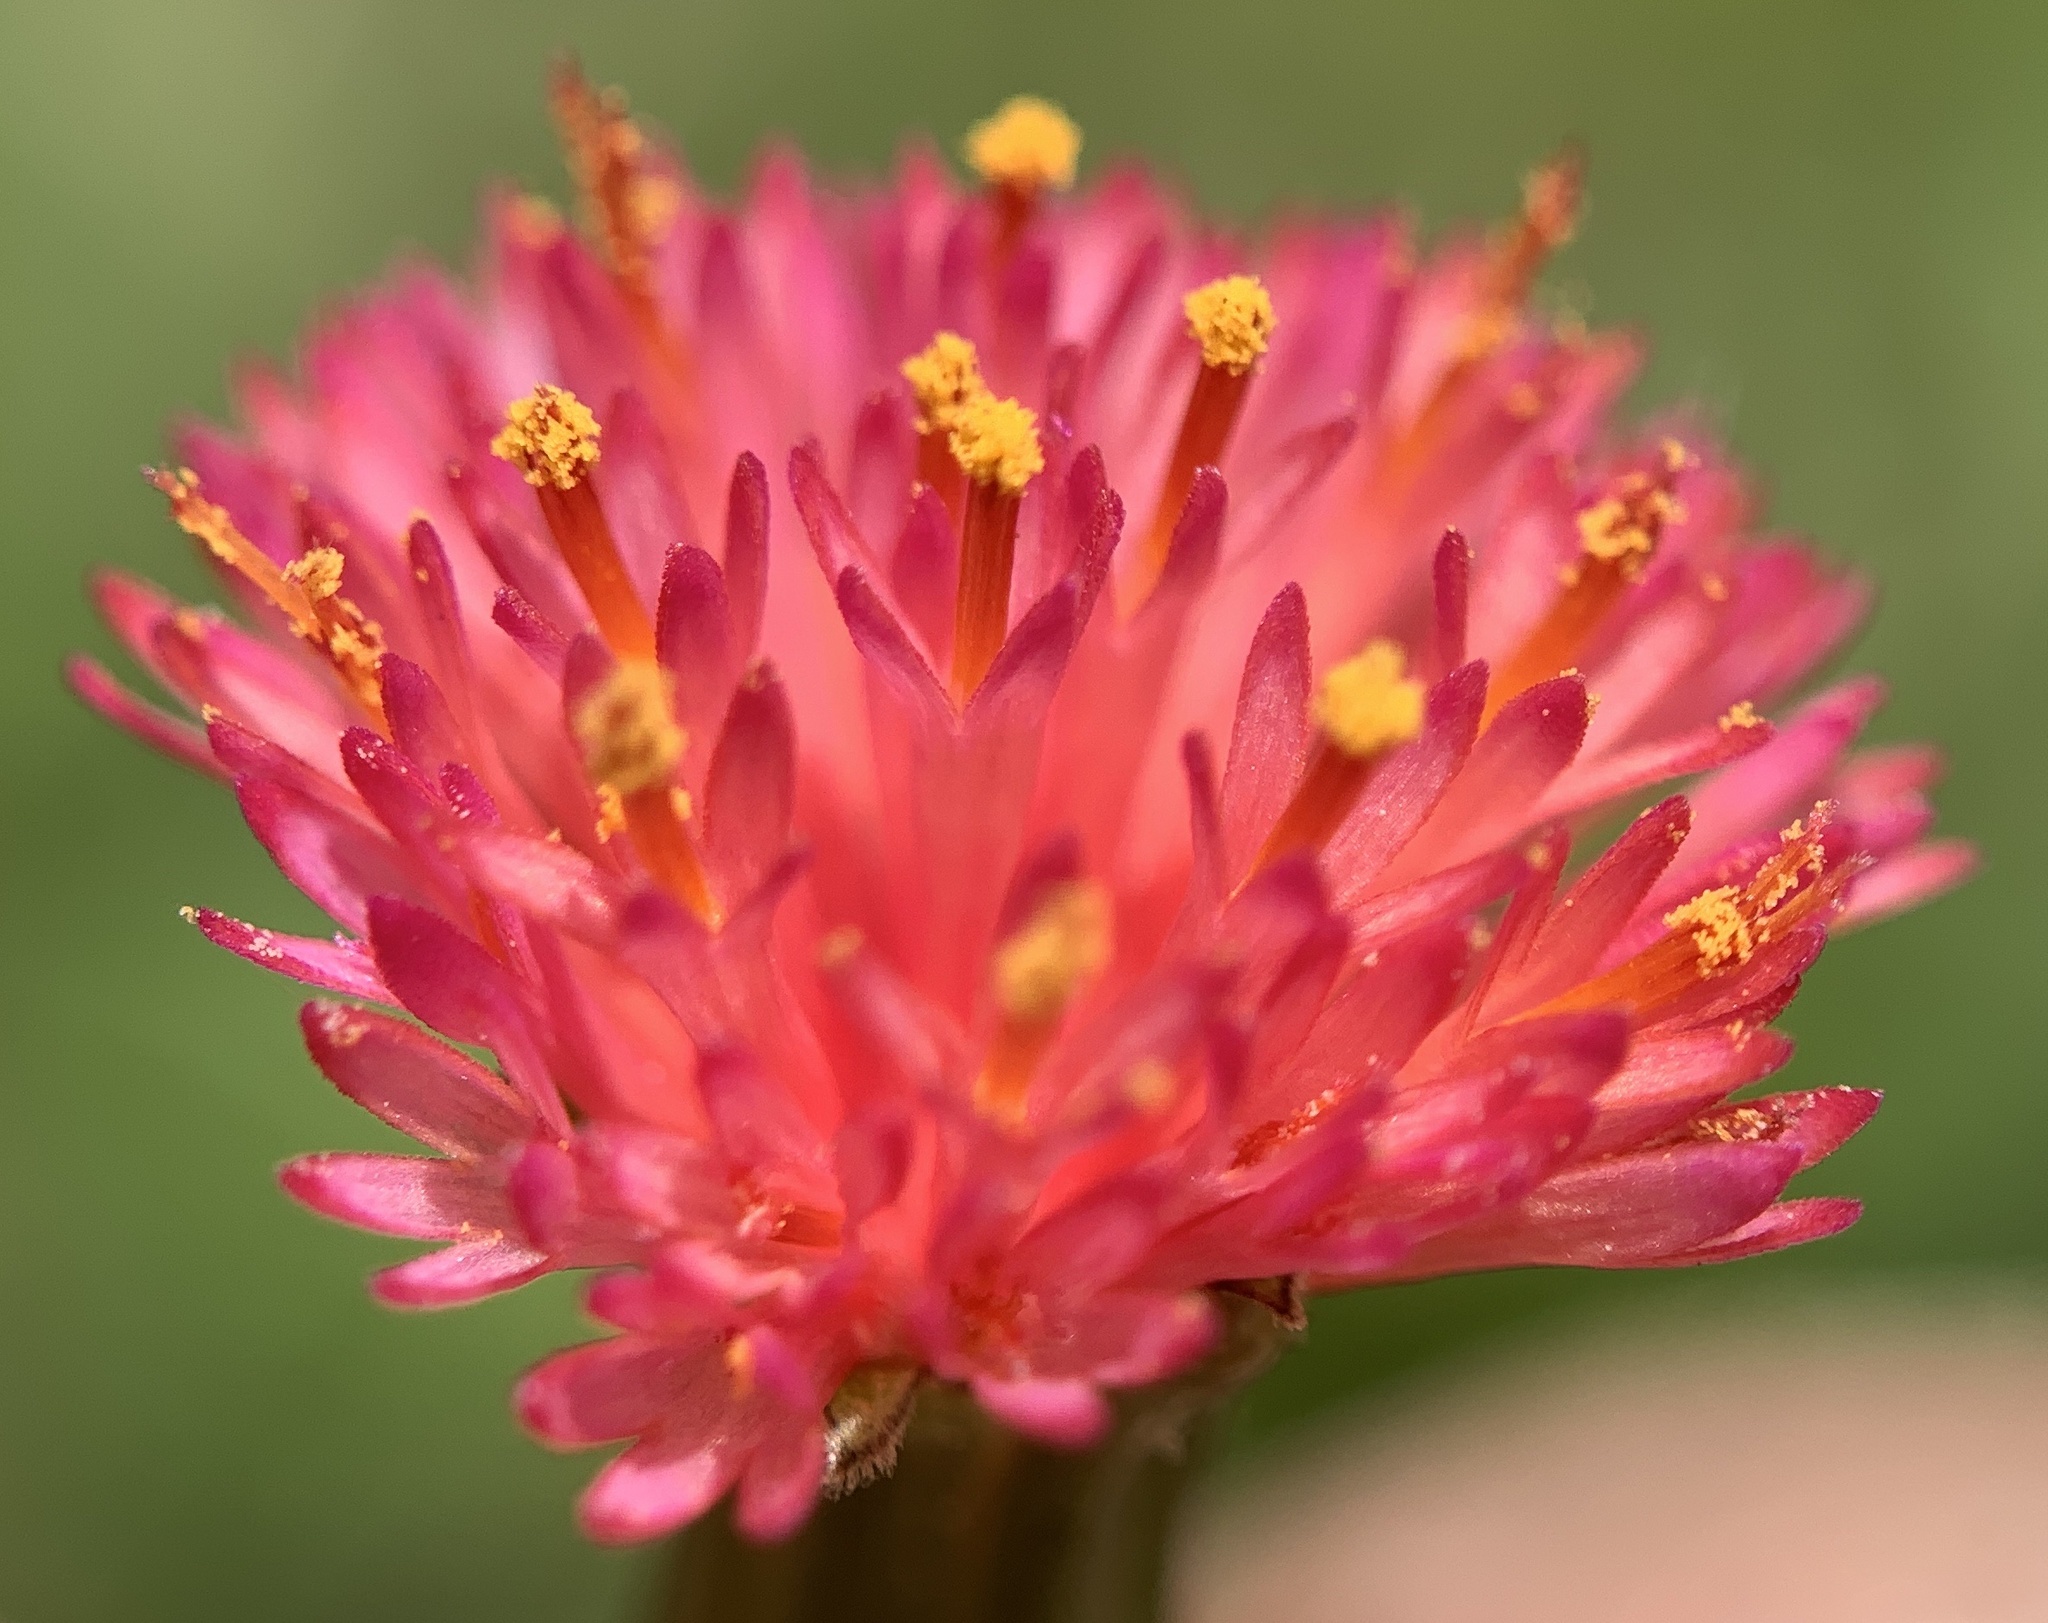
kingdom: Plantae
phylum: Tracheophyta
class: Magnoliopsida
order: Asterales
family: Asteraceae
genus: Emilia
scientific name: Emilia fosbergii
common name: Florida tasselflower
